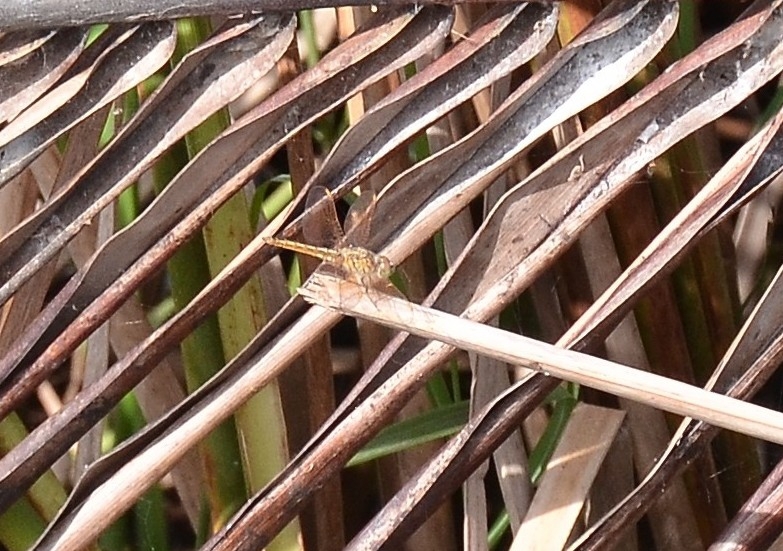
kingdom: Animalia
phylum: Arthropoda
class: Insecta
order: Odonata
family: Libellulidae
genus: Brachythemis
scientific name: Brachythemis contaminata
